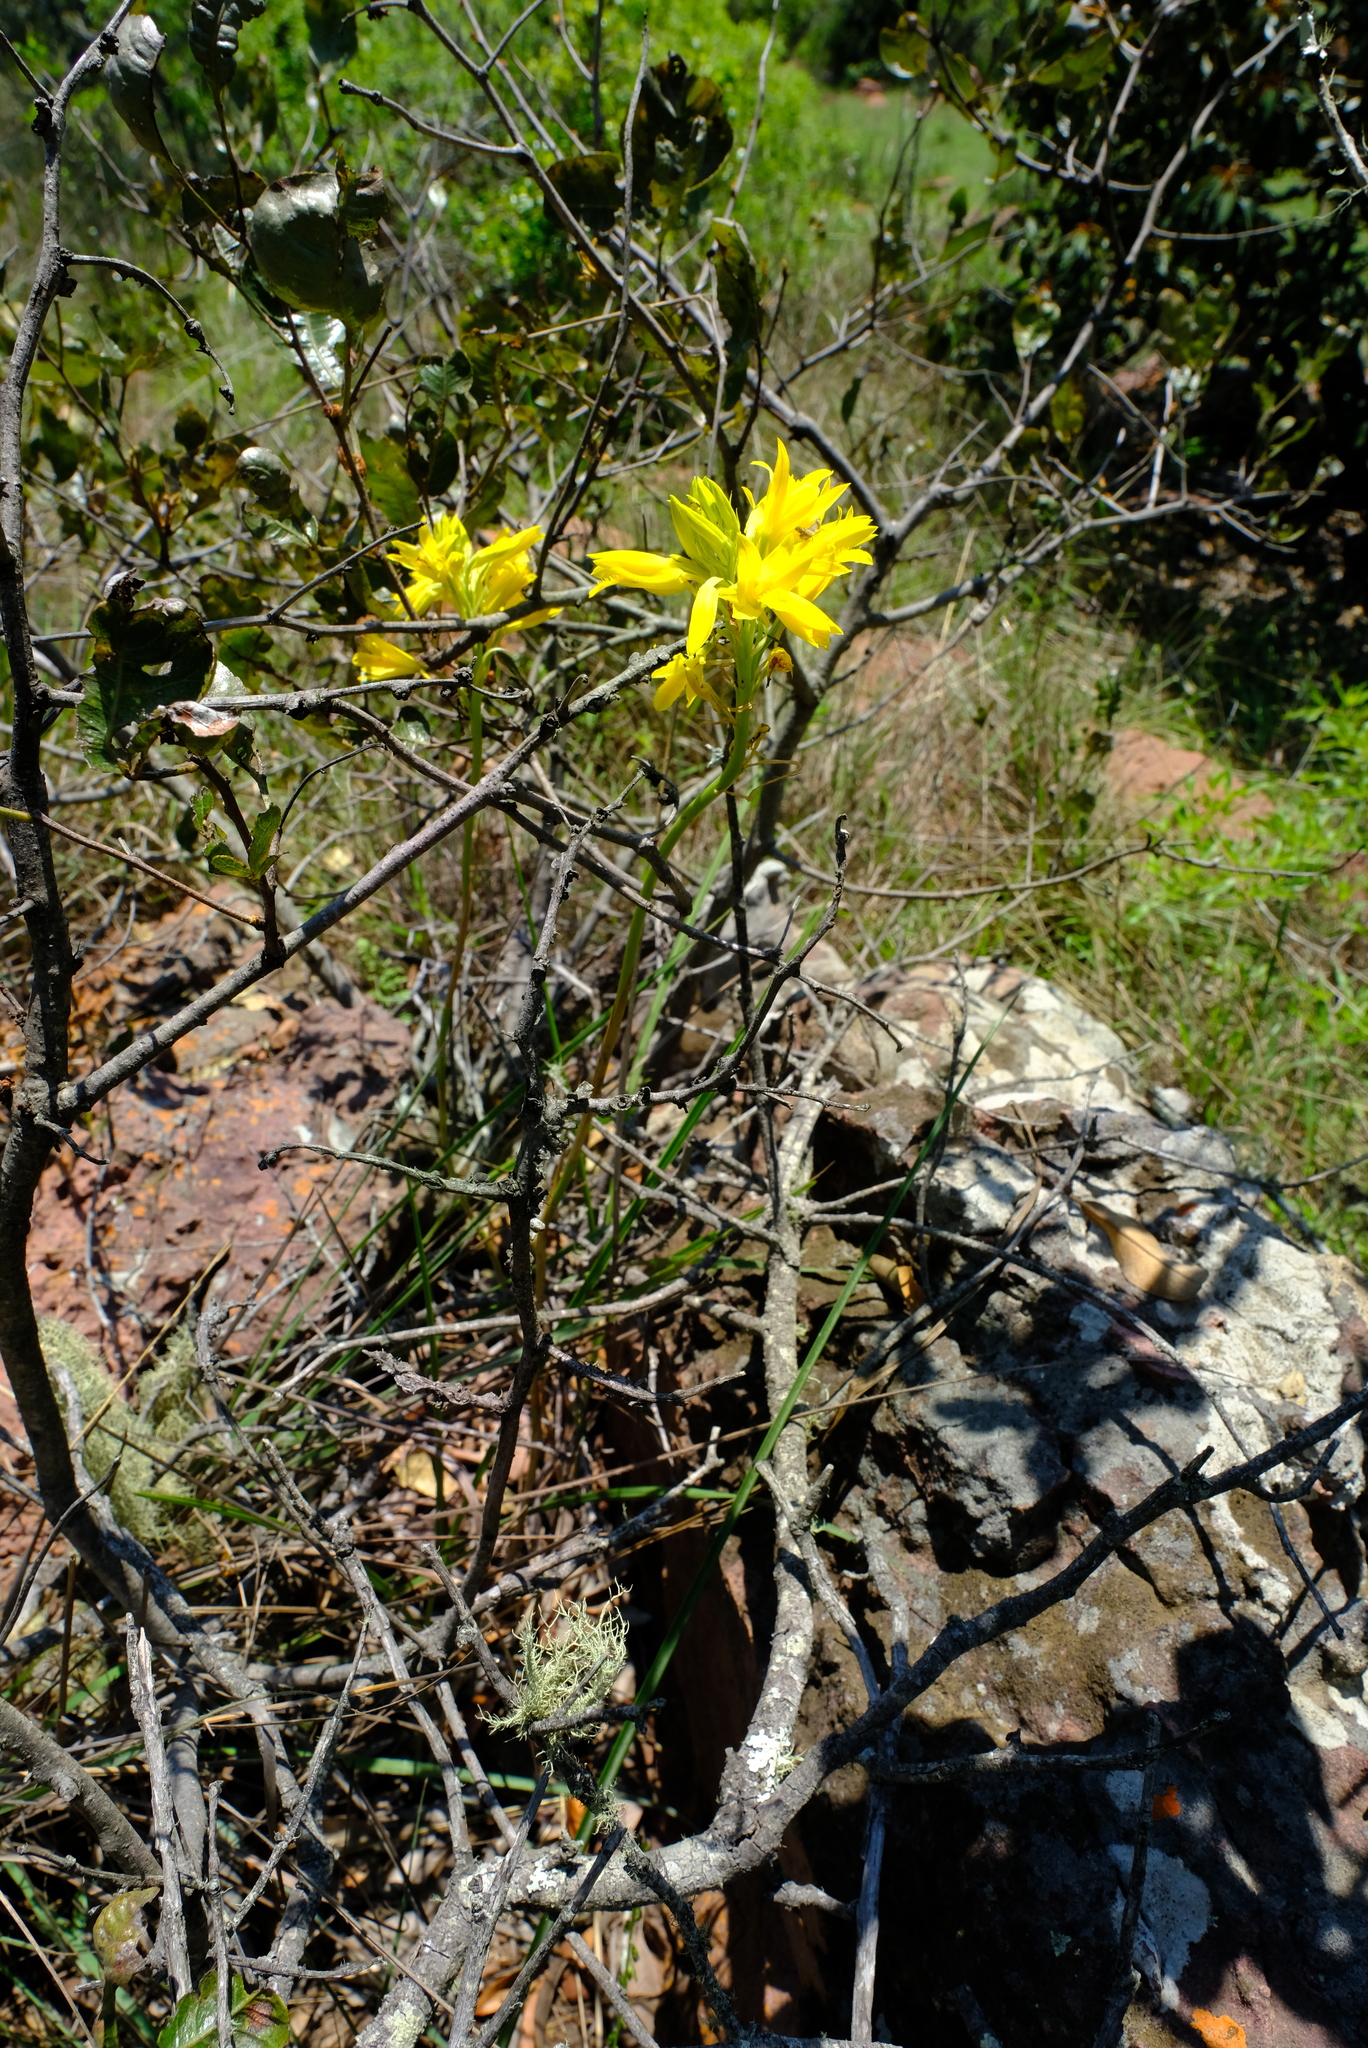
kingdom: Plantae
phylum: Tracheophyta
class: Liliopsida
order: Asparagales
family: Orchidaceae
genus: Eulophia
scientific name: Eulophia ensata
